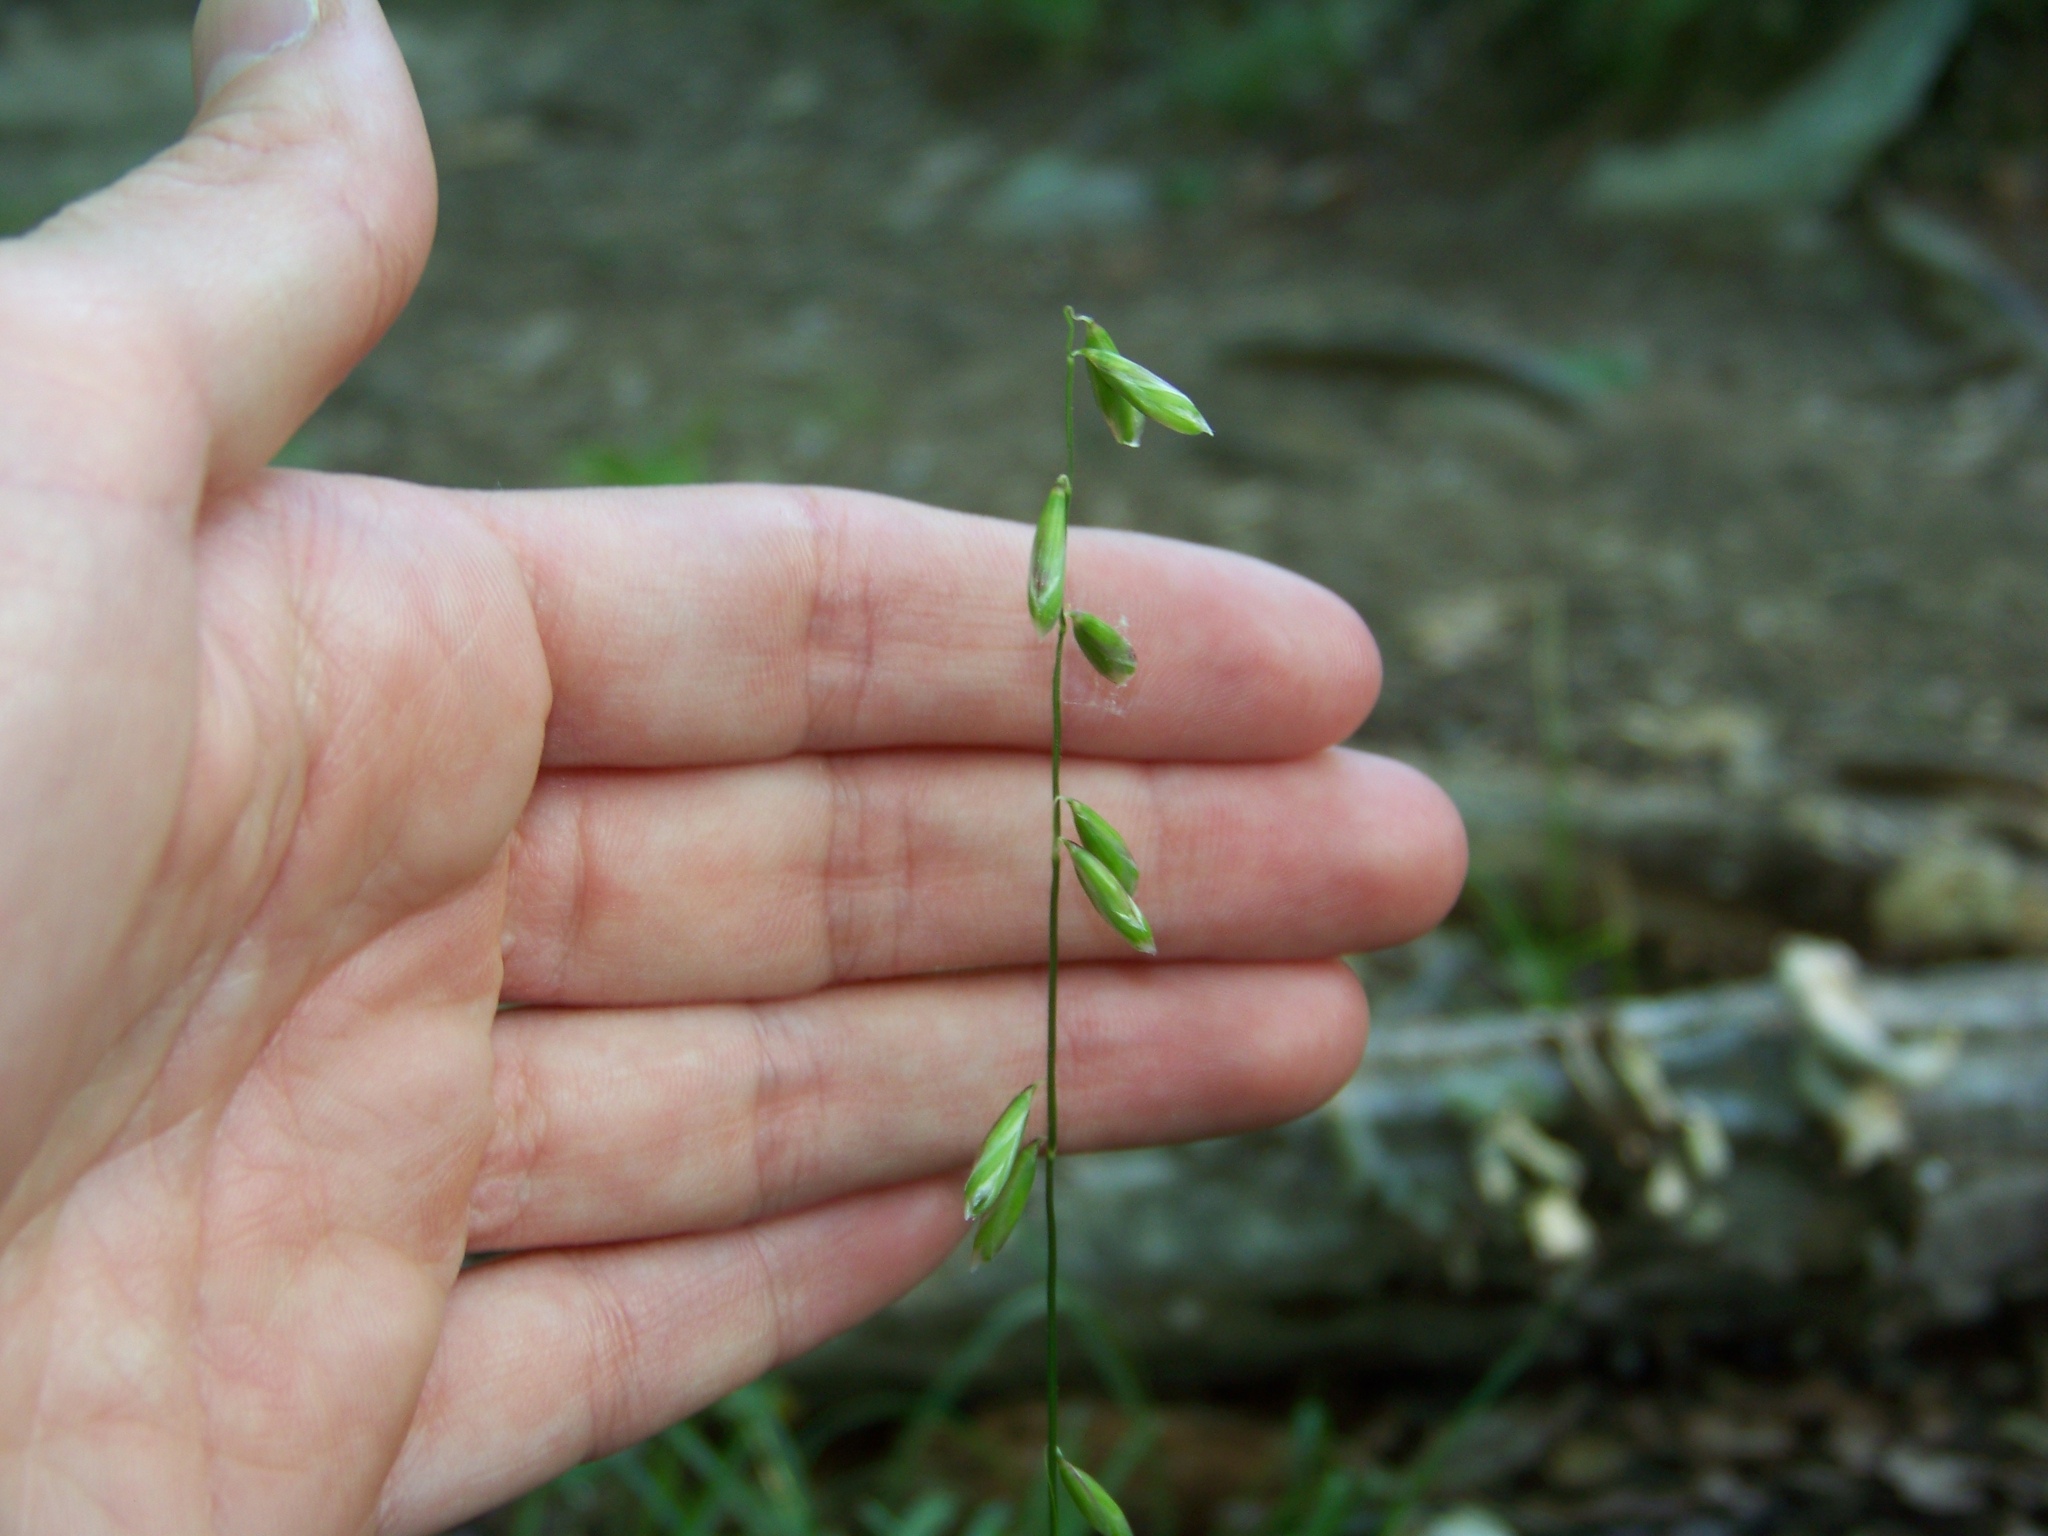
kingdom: Plantae
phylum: Tracheophyta
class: Liliopsida
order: Poales
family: Poaceae
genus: Melica
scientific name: Melica mutica
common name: Two-flower melic
